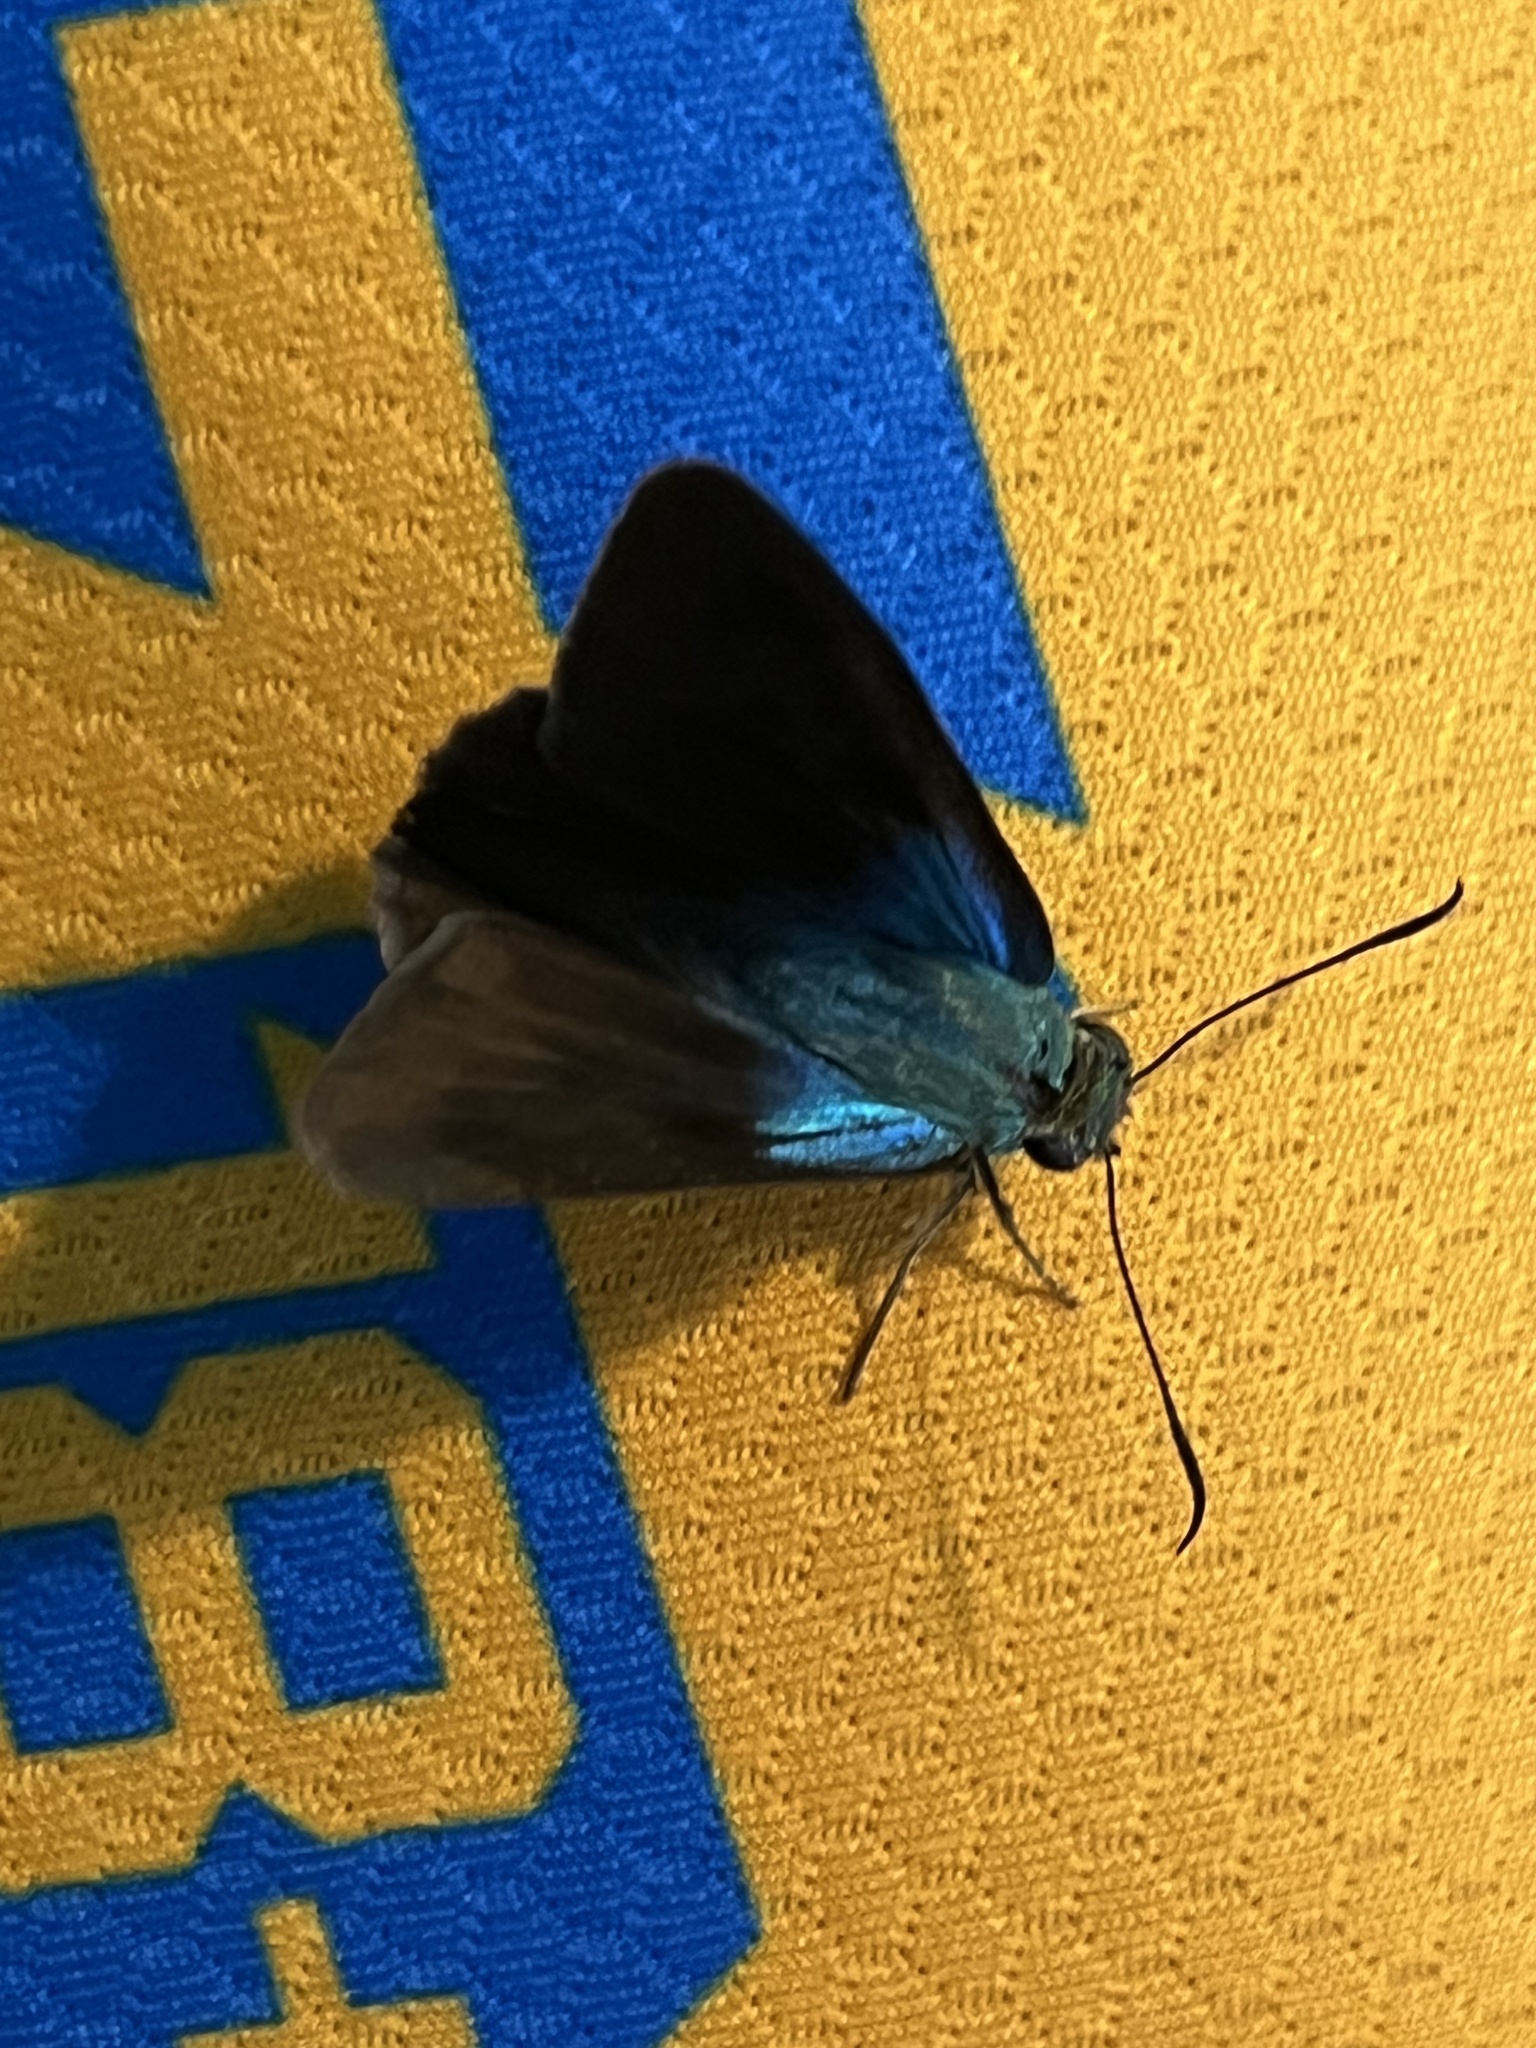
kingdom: Animalia
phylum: Arthropoda
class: Insecta
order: Lepidoptera
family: Hesperiidae
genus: Astraptes
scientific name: Astraptes alector
